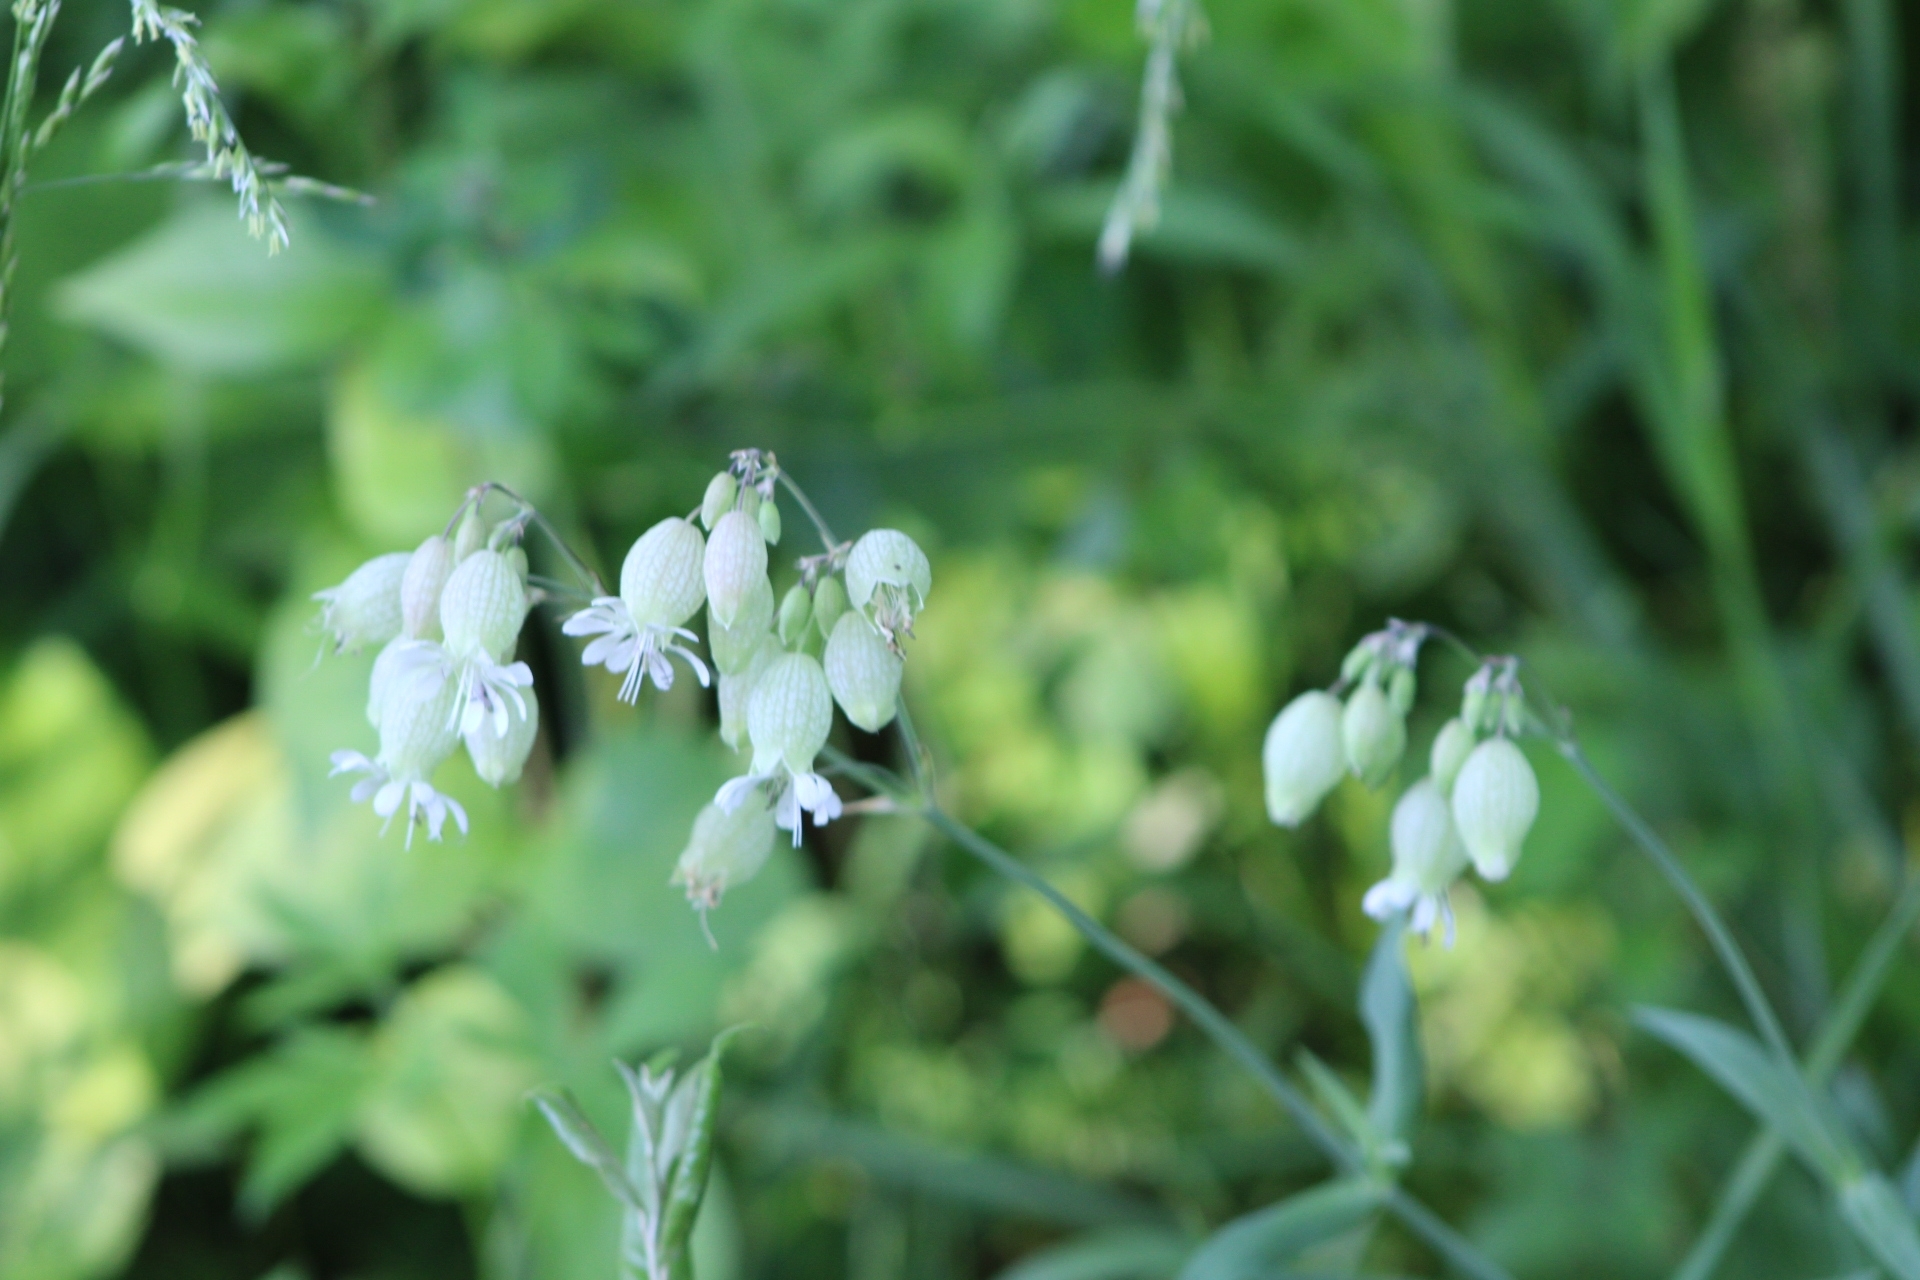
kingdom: Plantae
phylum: Tracheophyta
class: Magnoliopsida
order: Caryophyllales
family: Caryophyllaceae
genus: Silene
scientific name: Silene vulgaris
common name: Bladder campion
